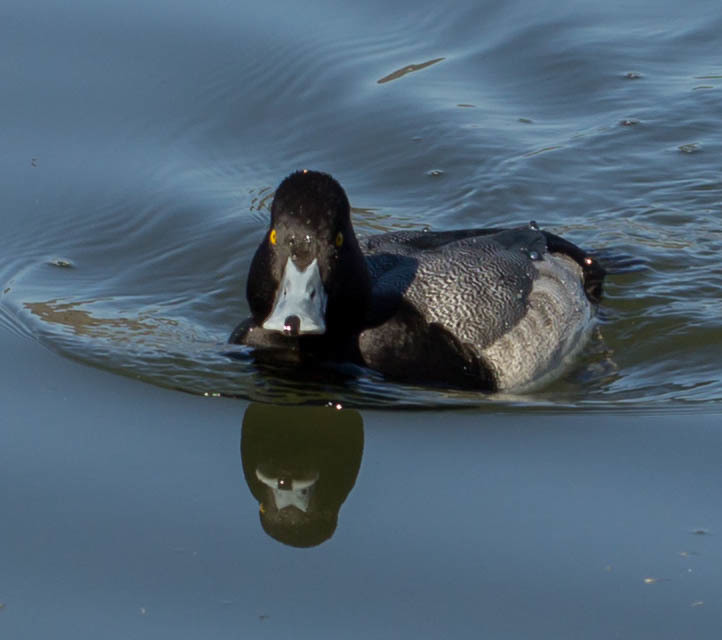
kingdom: Animalia
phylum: Chordata
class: Aves
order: Anseriformes
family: Anatidae
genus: Aythya
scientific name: Aythya affinis
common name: Lesser scaup
